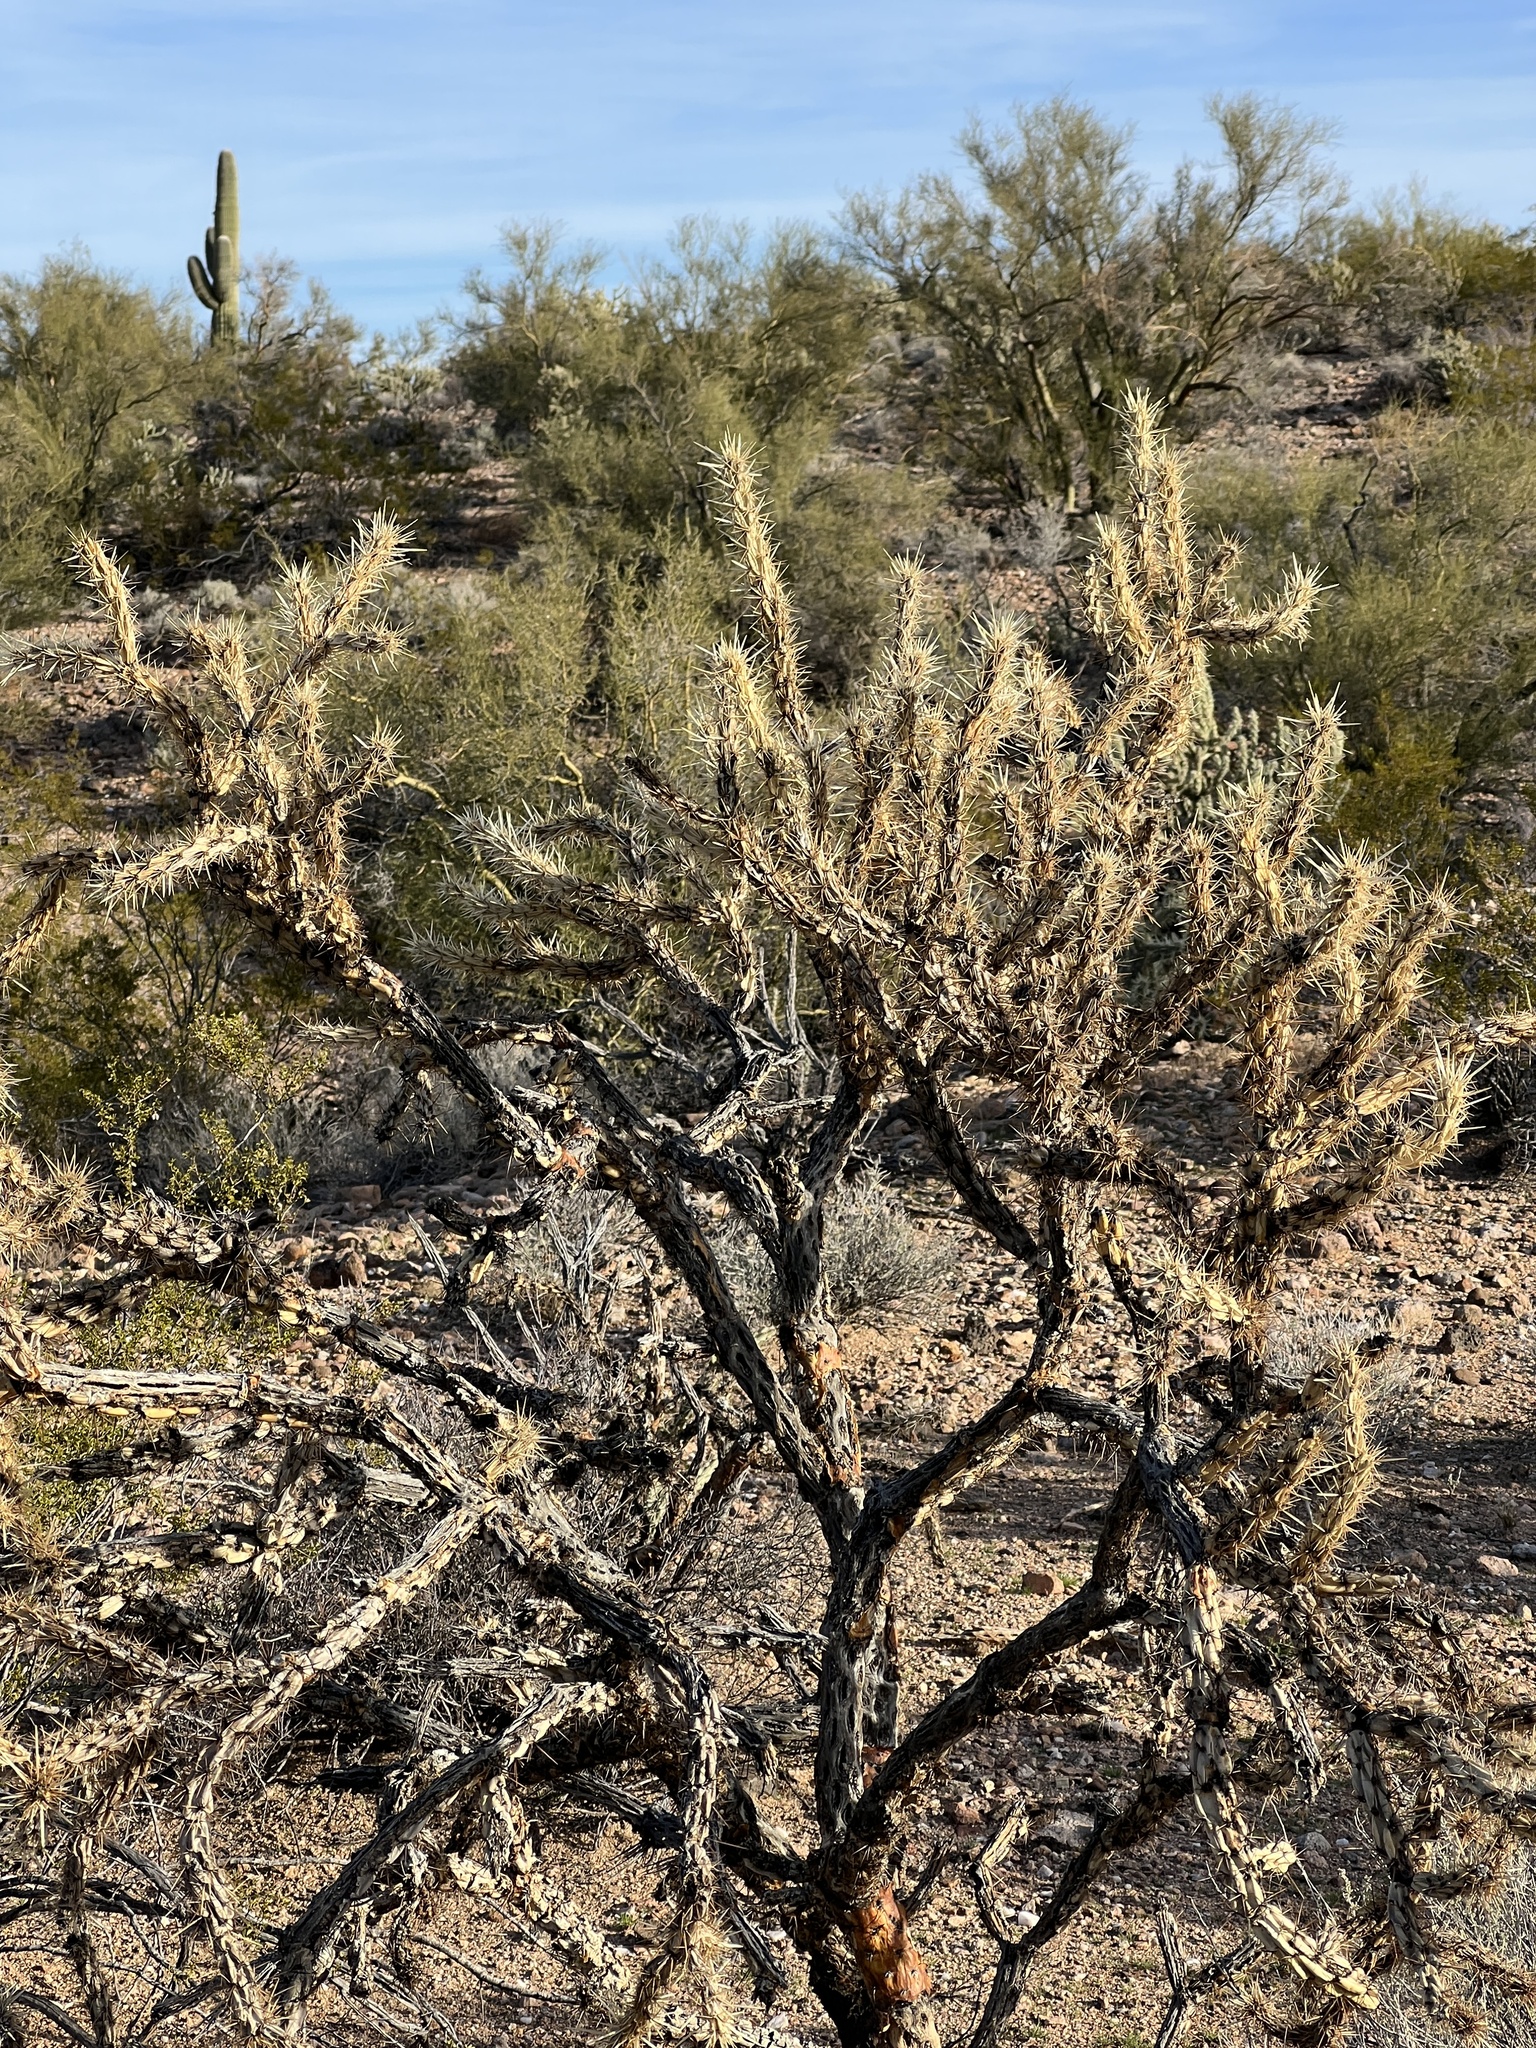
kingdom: Plantae
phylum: Tracheophyta
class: Magnoliopsida
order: Caryophyllales
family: Cactaceae
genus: Cylindropuntia
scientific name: Cylindropuntia acanthocarpa
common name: Buckhorn cholla
